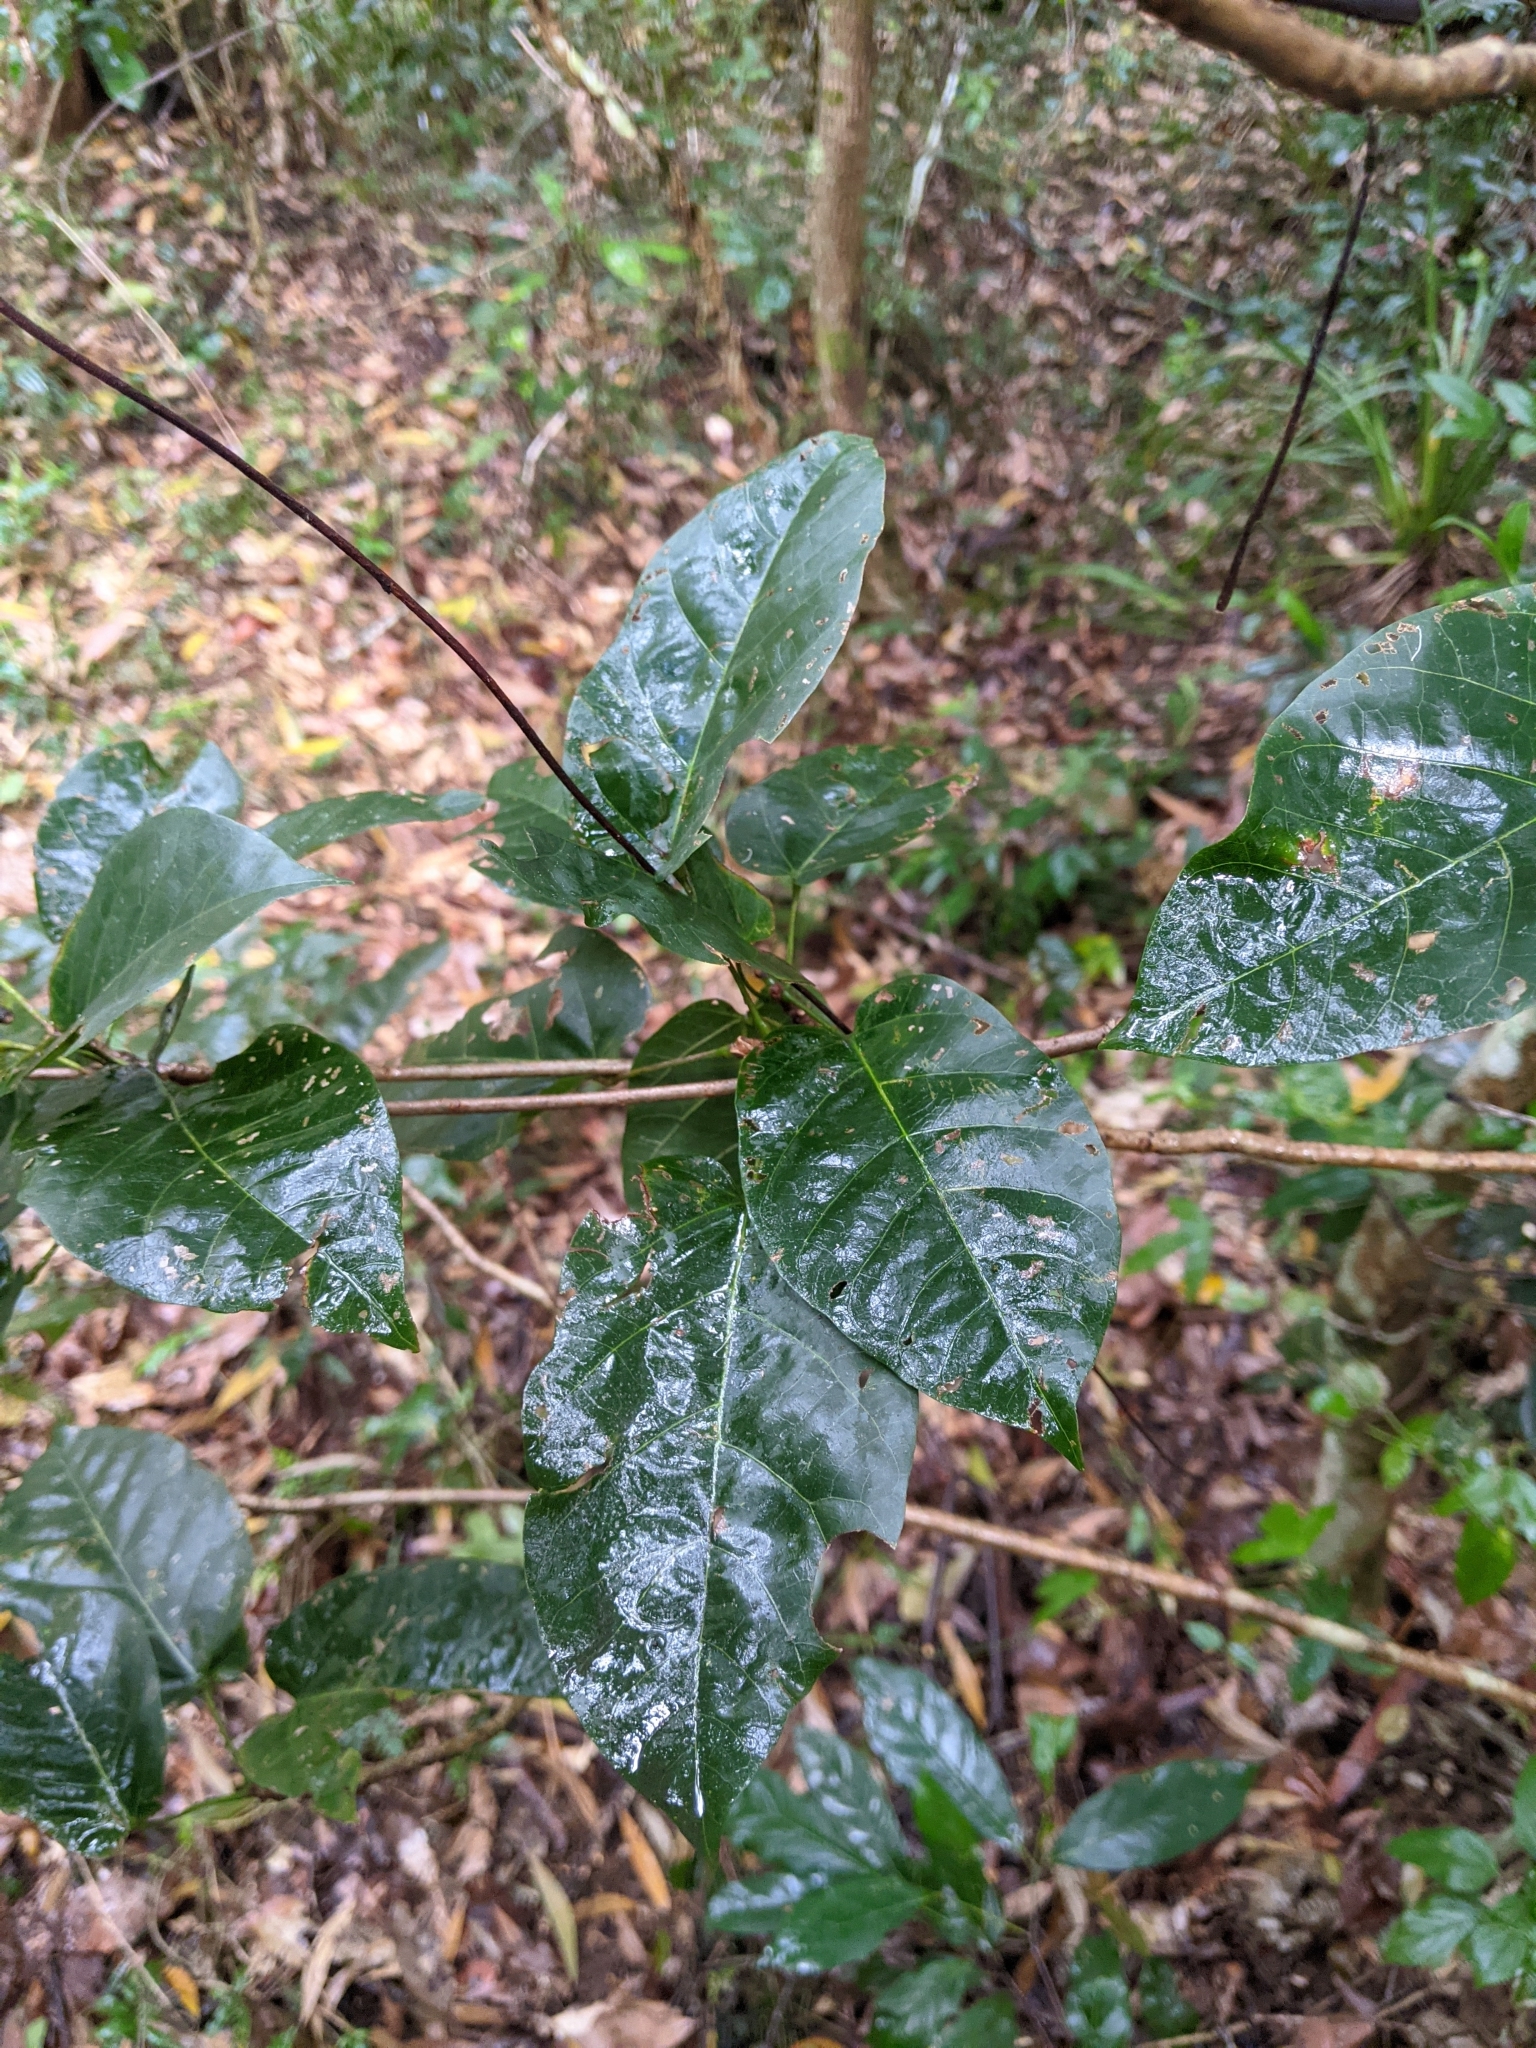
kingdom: Plantae
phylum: Tracheophyta
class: Magnoliopsida
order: Malvales
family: Malvaceae
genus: Sterculia
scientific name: Sterculia quadrifida
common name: Orange-fruit kurrajong
